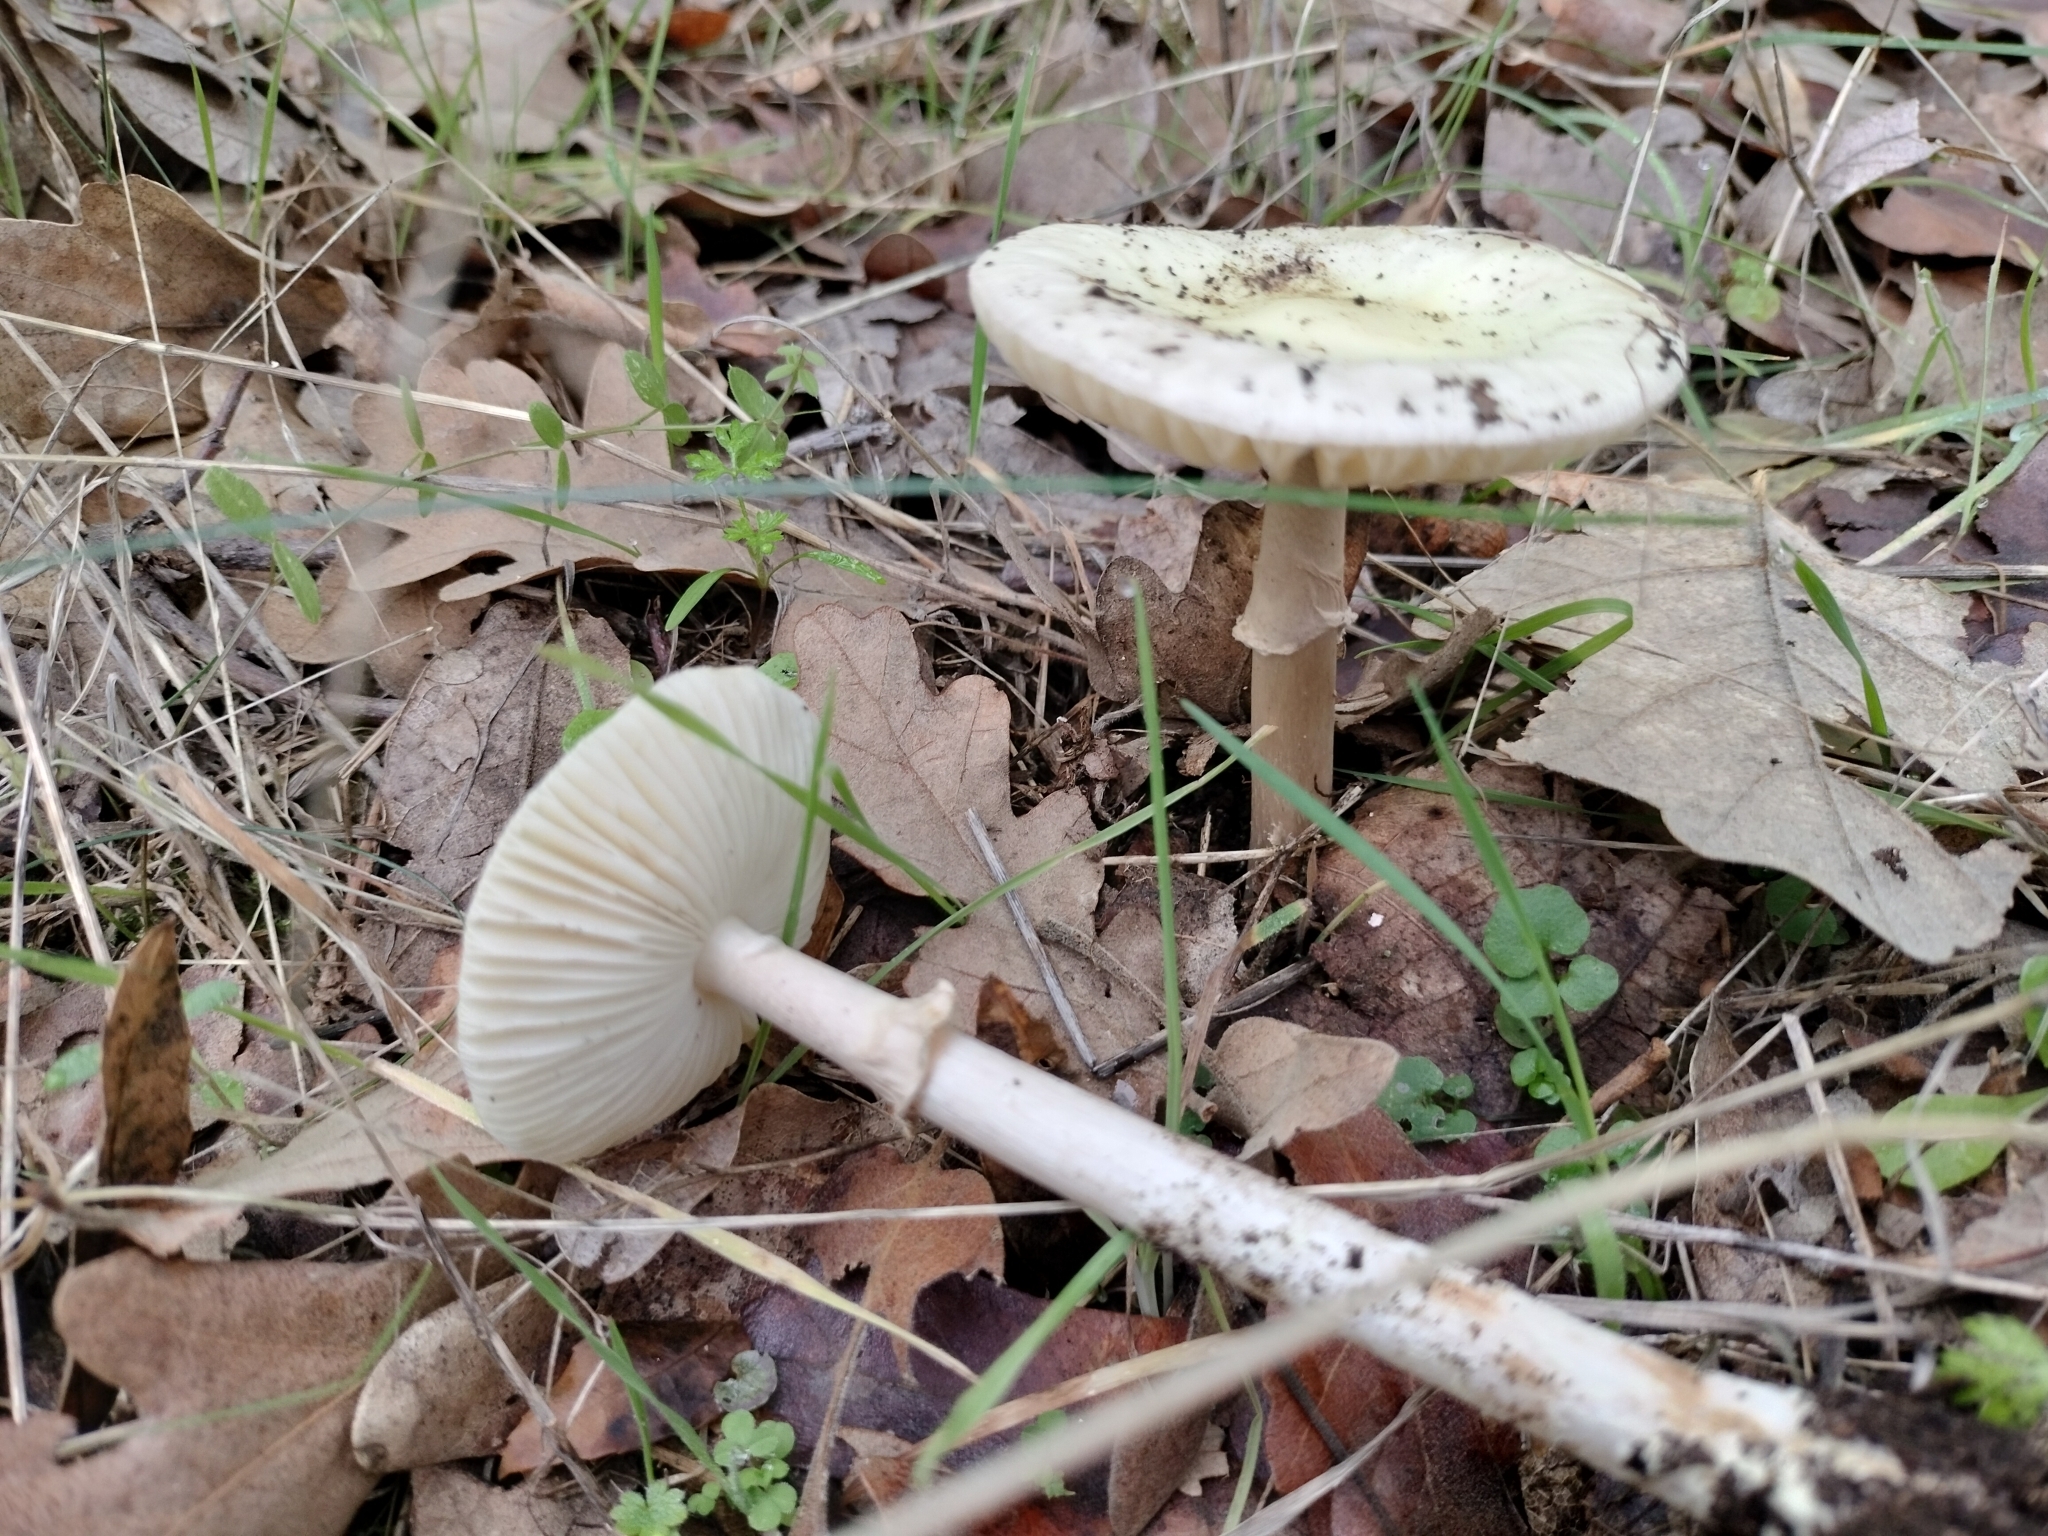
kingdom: Fungi
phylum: Basidiomycota
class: Agaricomycetes
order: Agaricales
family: Amanitaceae
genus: Amanita
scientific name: Amanita citrina
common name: False death-cap
